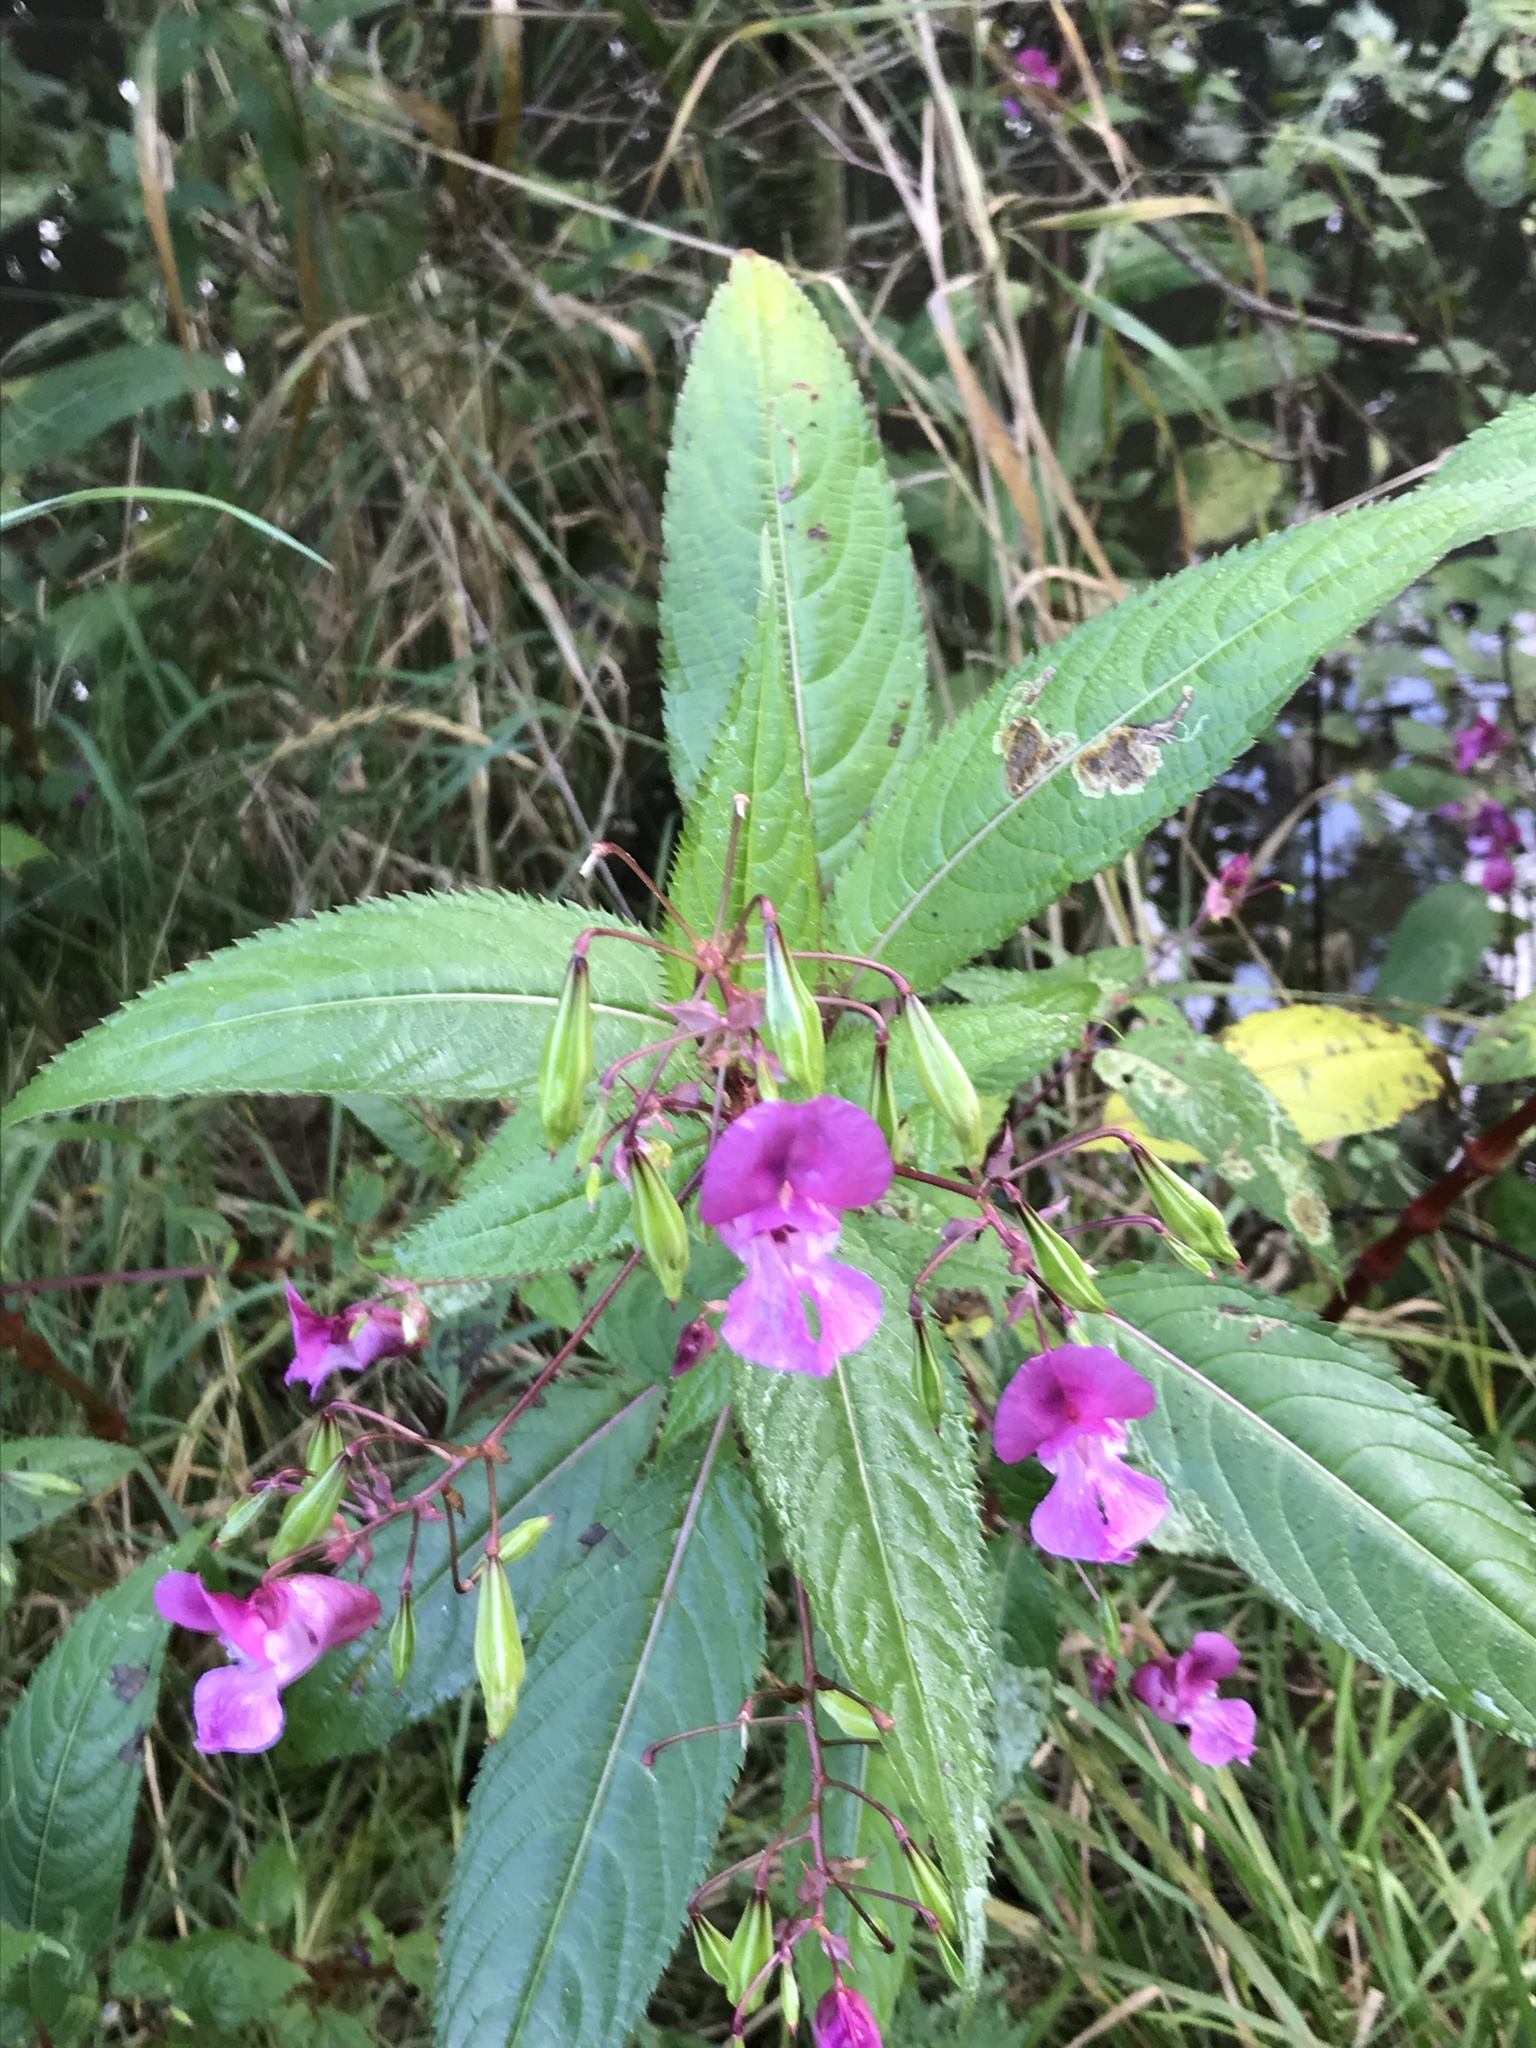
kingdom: Plantae
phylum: Tracheophyta
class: Magnoliopsida
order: Ericales
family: Balsaminaceae
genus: Impatiens
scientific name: Impatiens glandulifera
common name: Himalayan balsam
